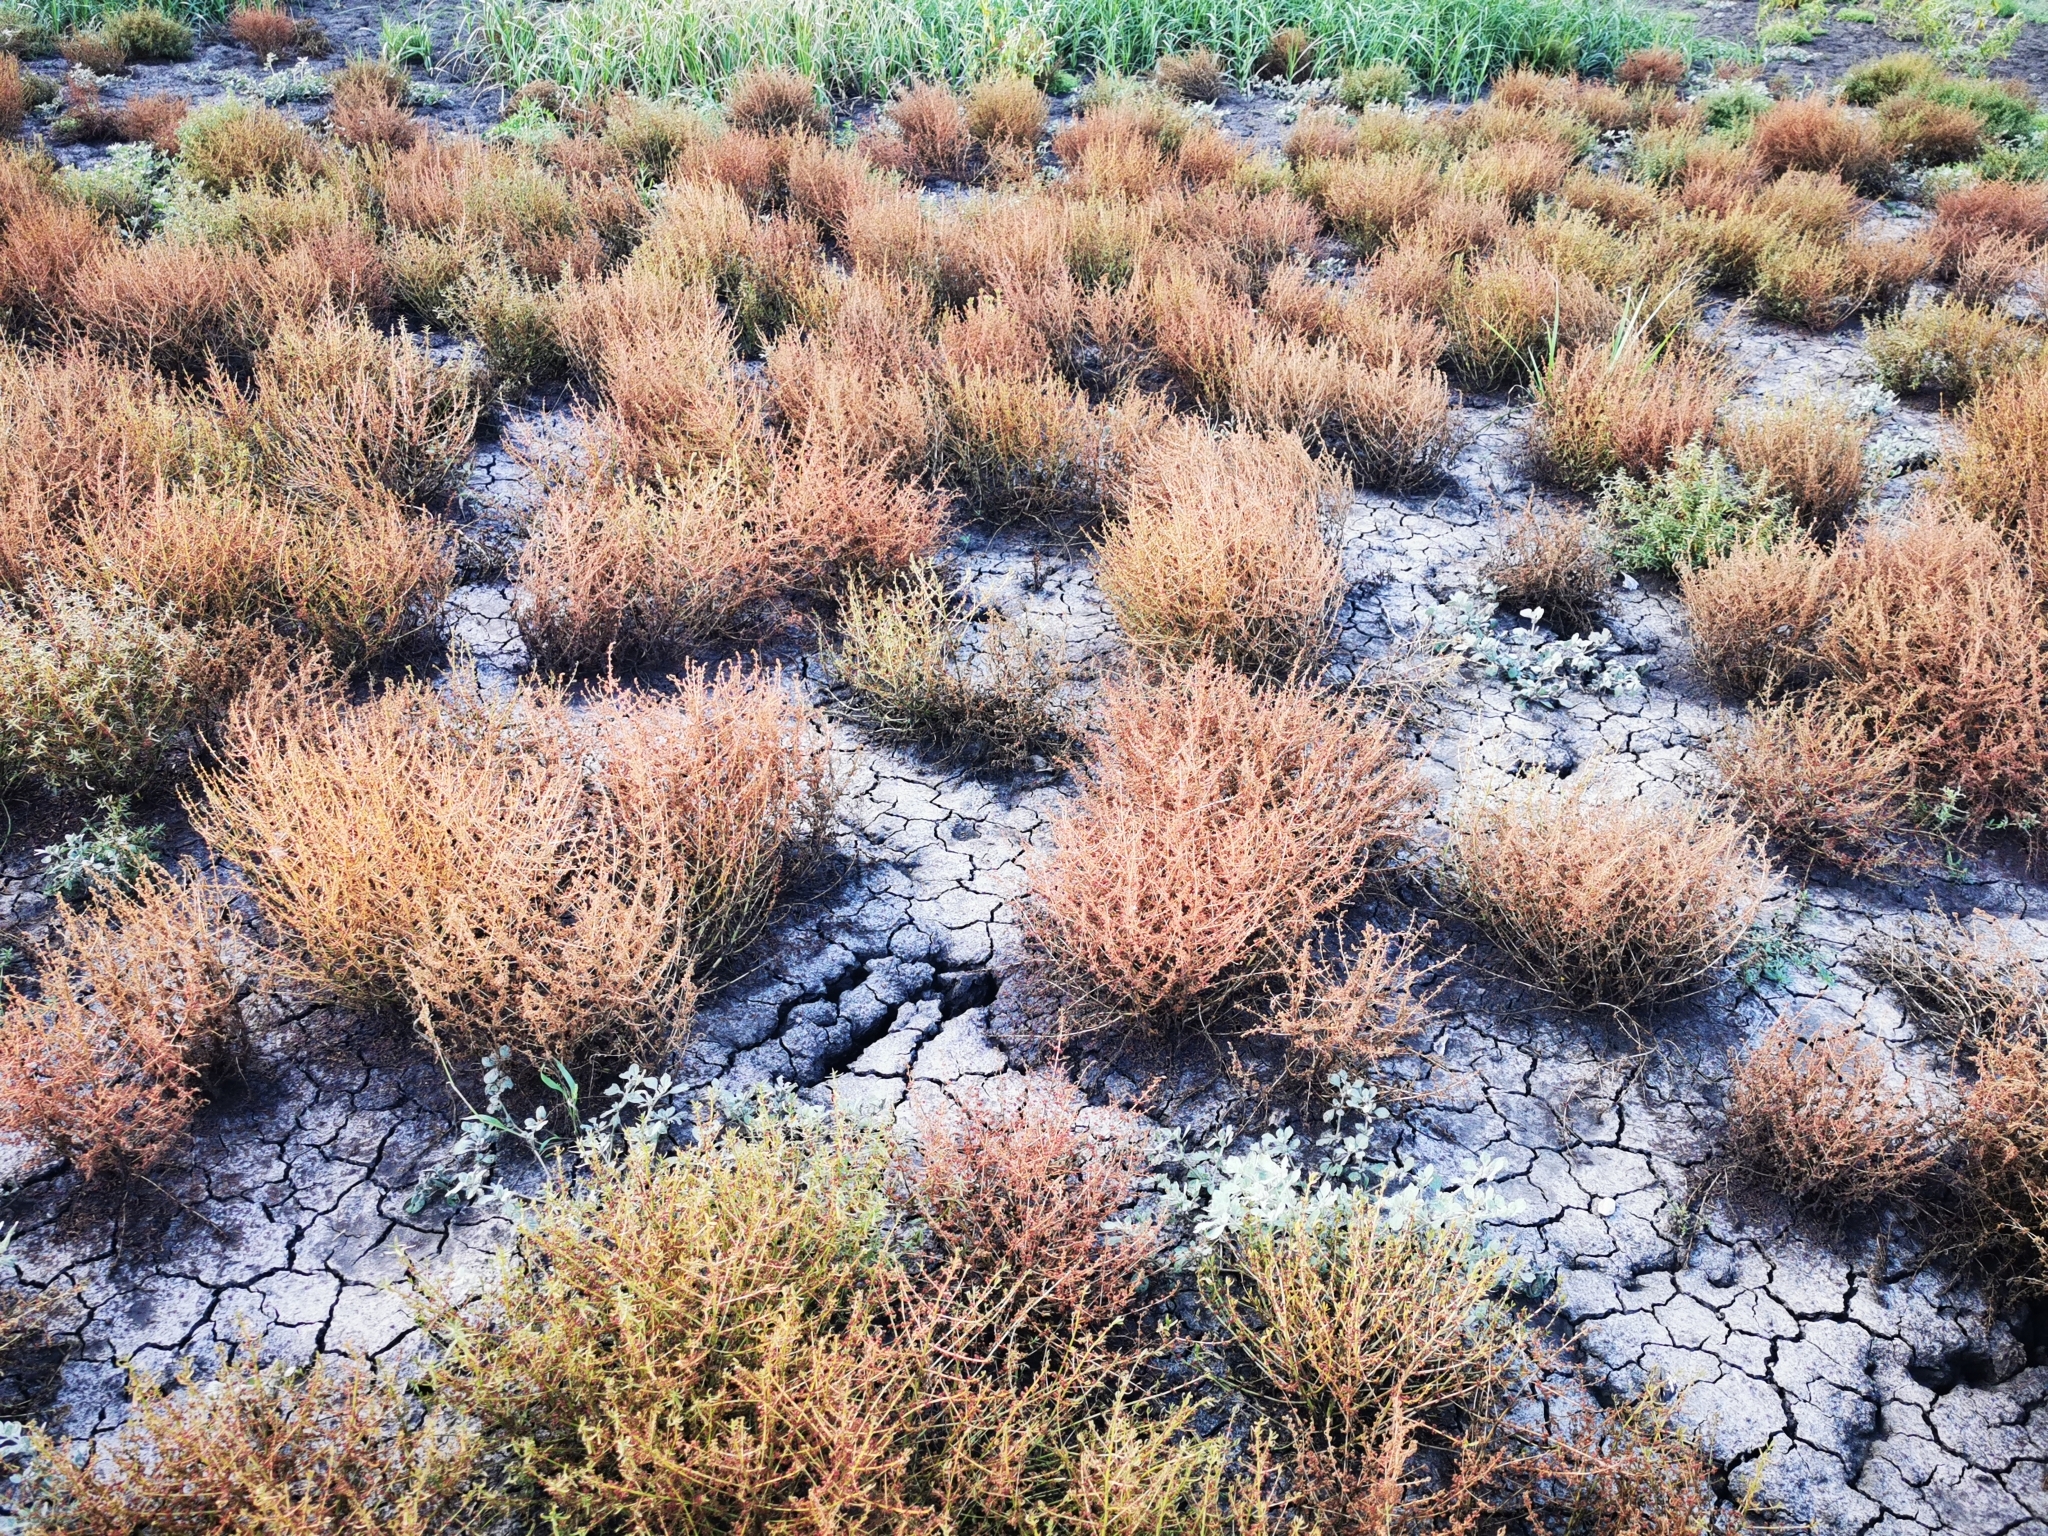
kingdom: Plantae
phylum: Tracheophyta
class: Magnoliopsida
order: Myrtales
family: Lythraceae
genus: Ammannia
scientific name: Ammannia auriculata
